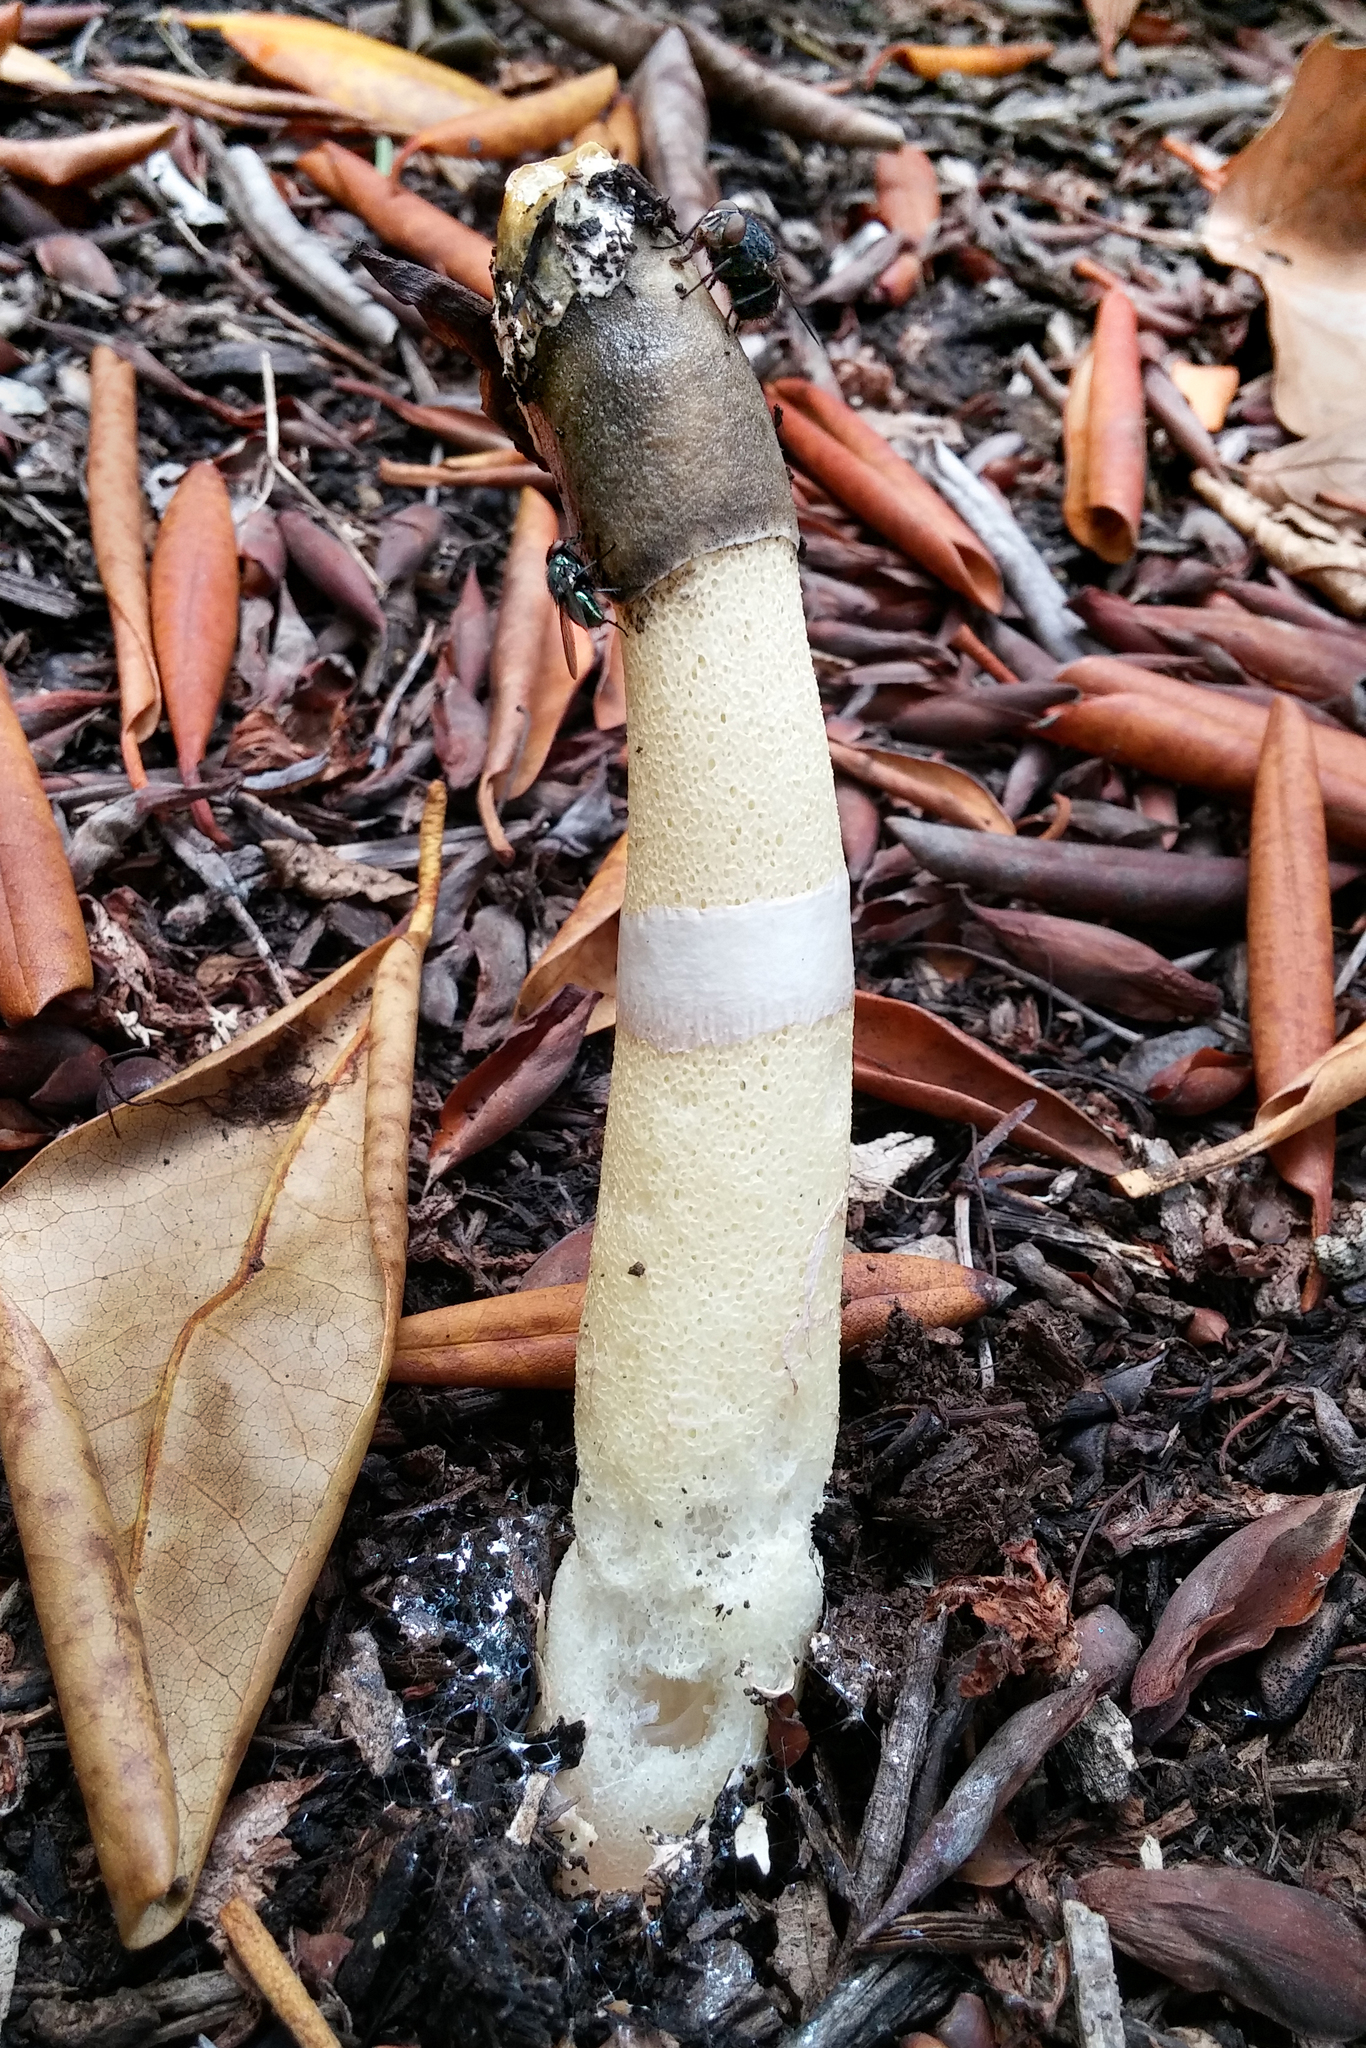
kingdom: Fungi
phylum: Basidiomycota
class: Agaricomycetes
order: Phallales
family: Phallaceae
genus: Phallus
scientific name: Phallus ravenelii
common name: Ravenel's stinkhorn
